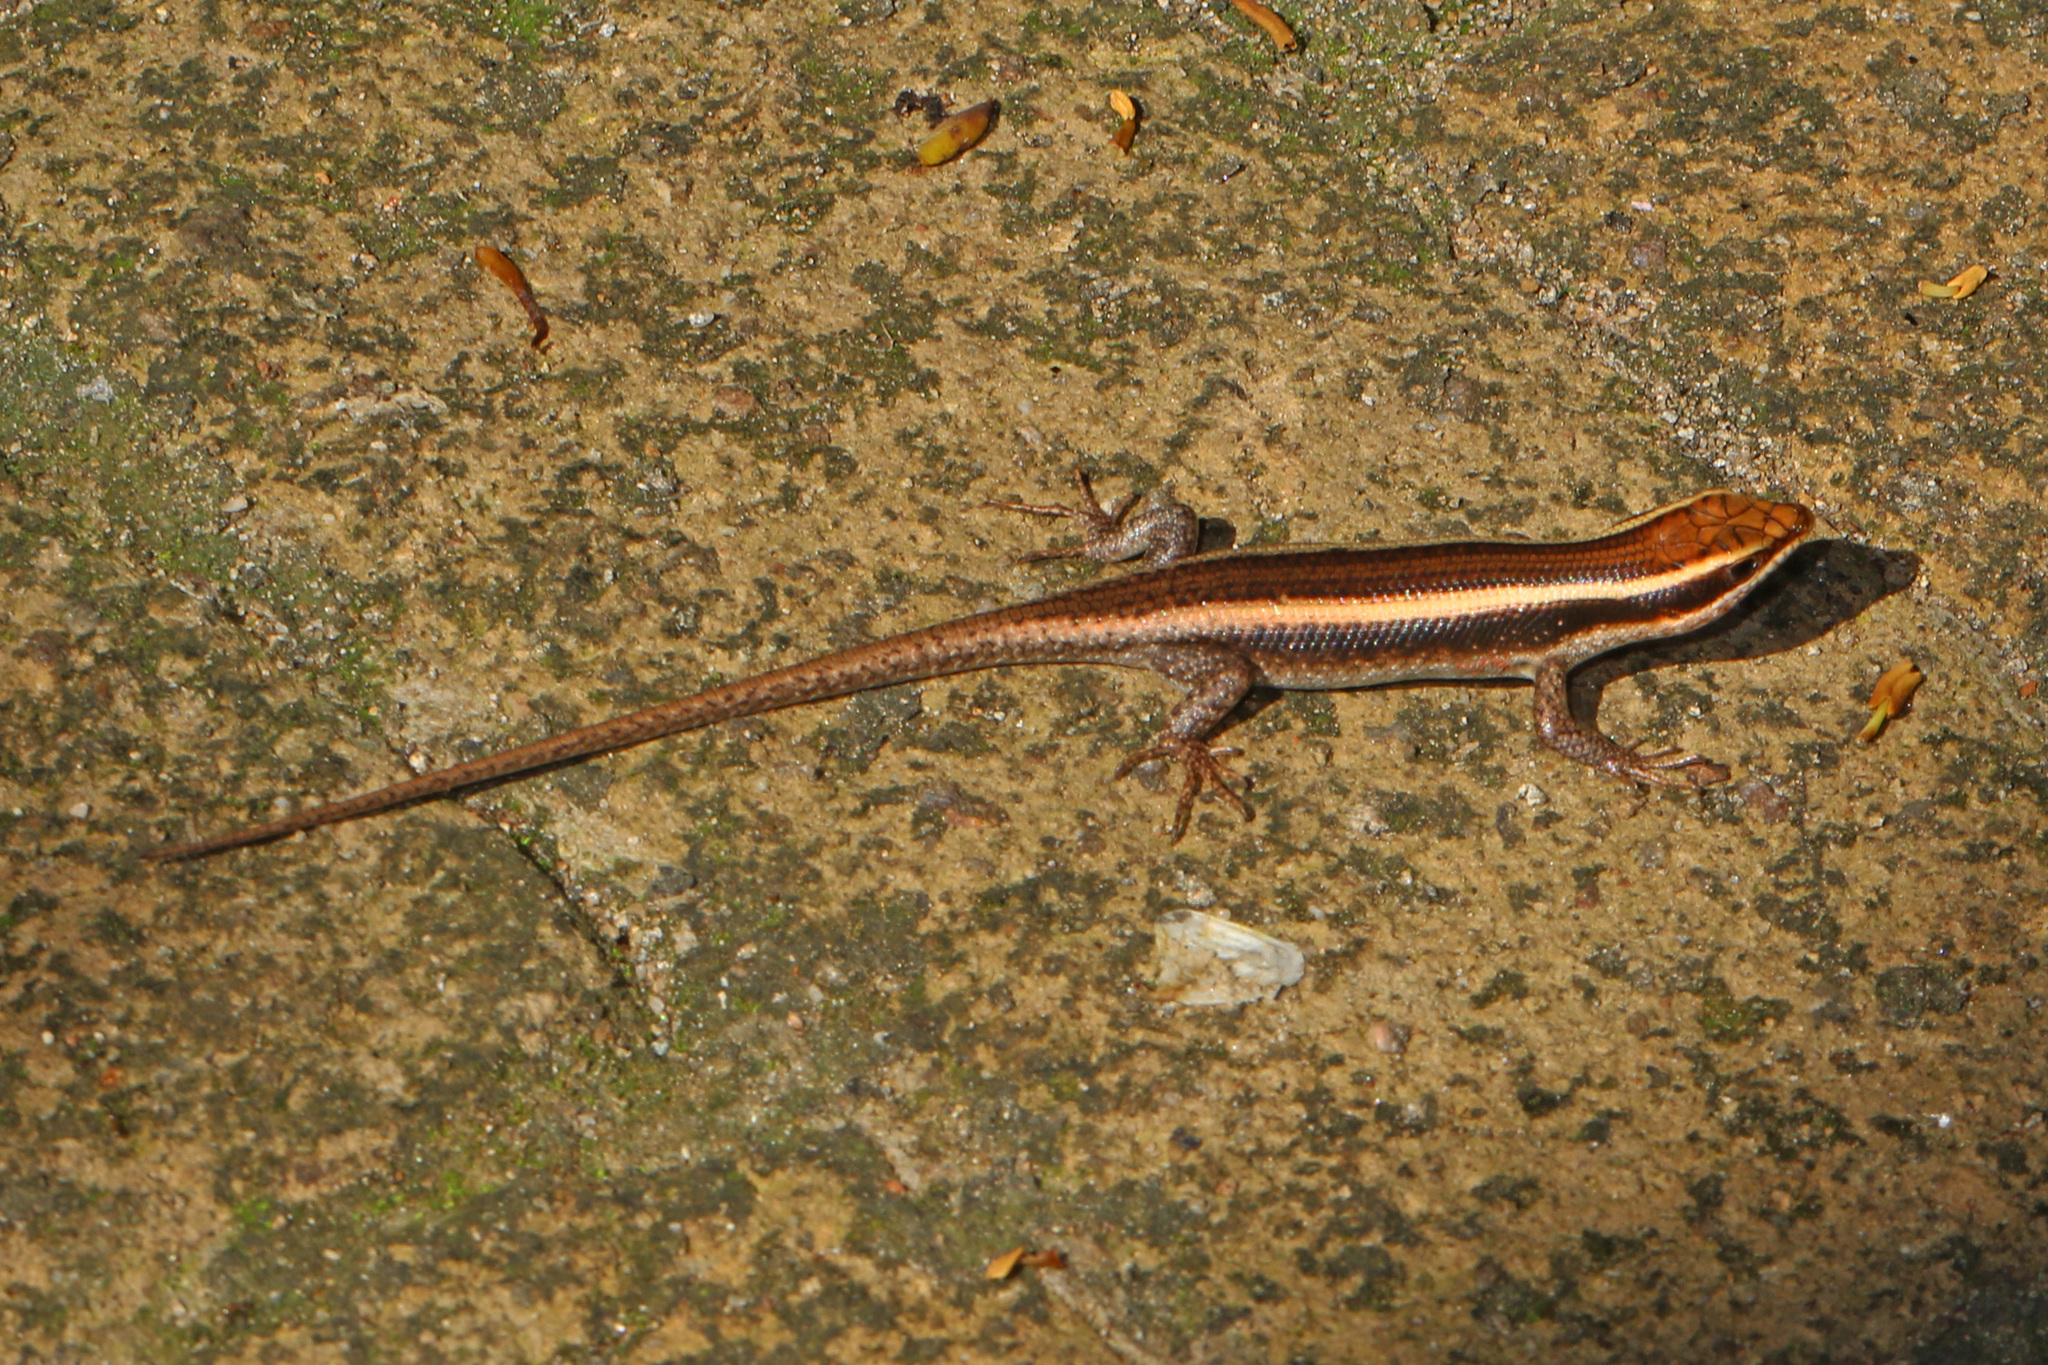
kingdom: Animalia
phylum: Chordata
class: Squamata
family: Scincidae
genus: Trachylepis
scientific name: Trachylepis striata
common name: African striped mabuya
